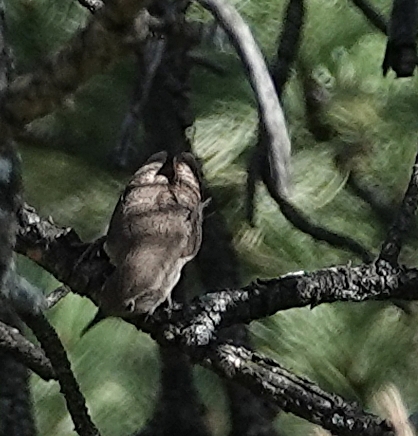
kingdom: Animalia
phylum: Chordata
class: Aves
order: Passeriformes
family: Troglodytidae
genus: Troglodytes
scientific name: Troglodytes aedon
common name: House wren
